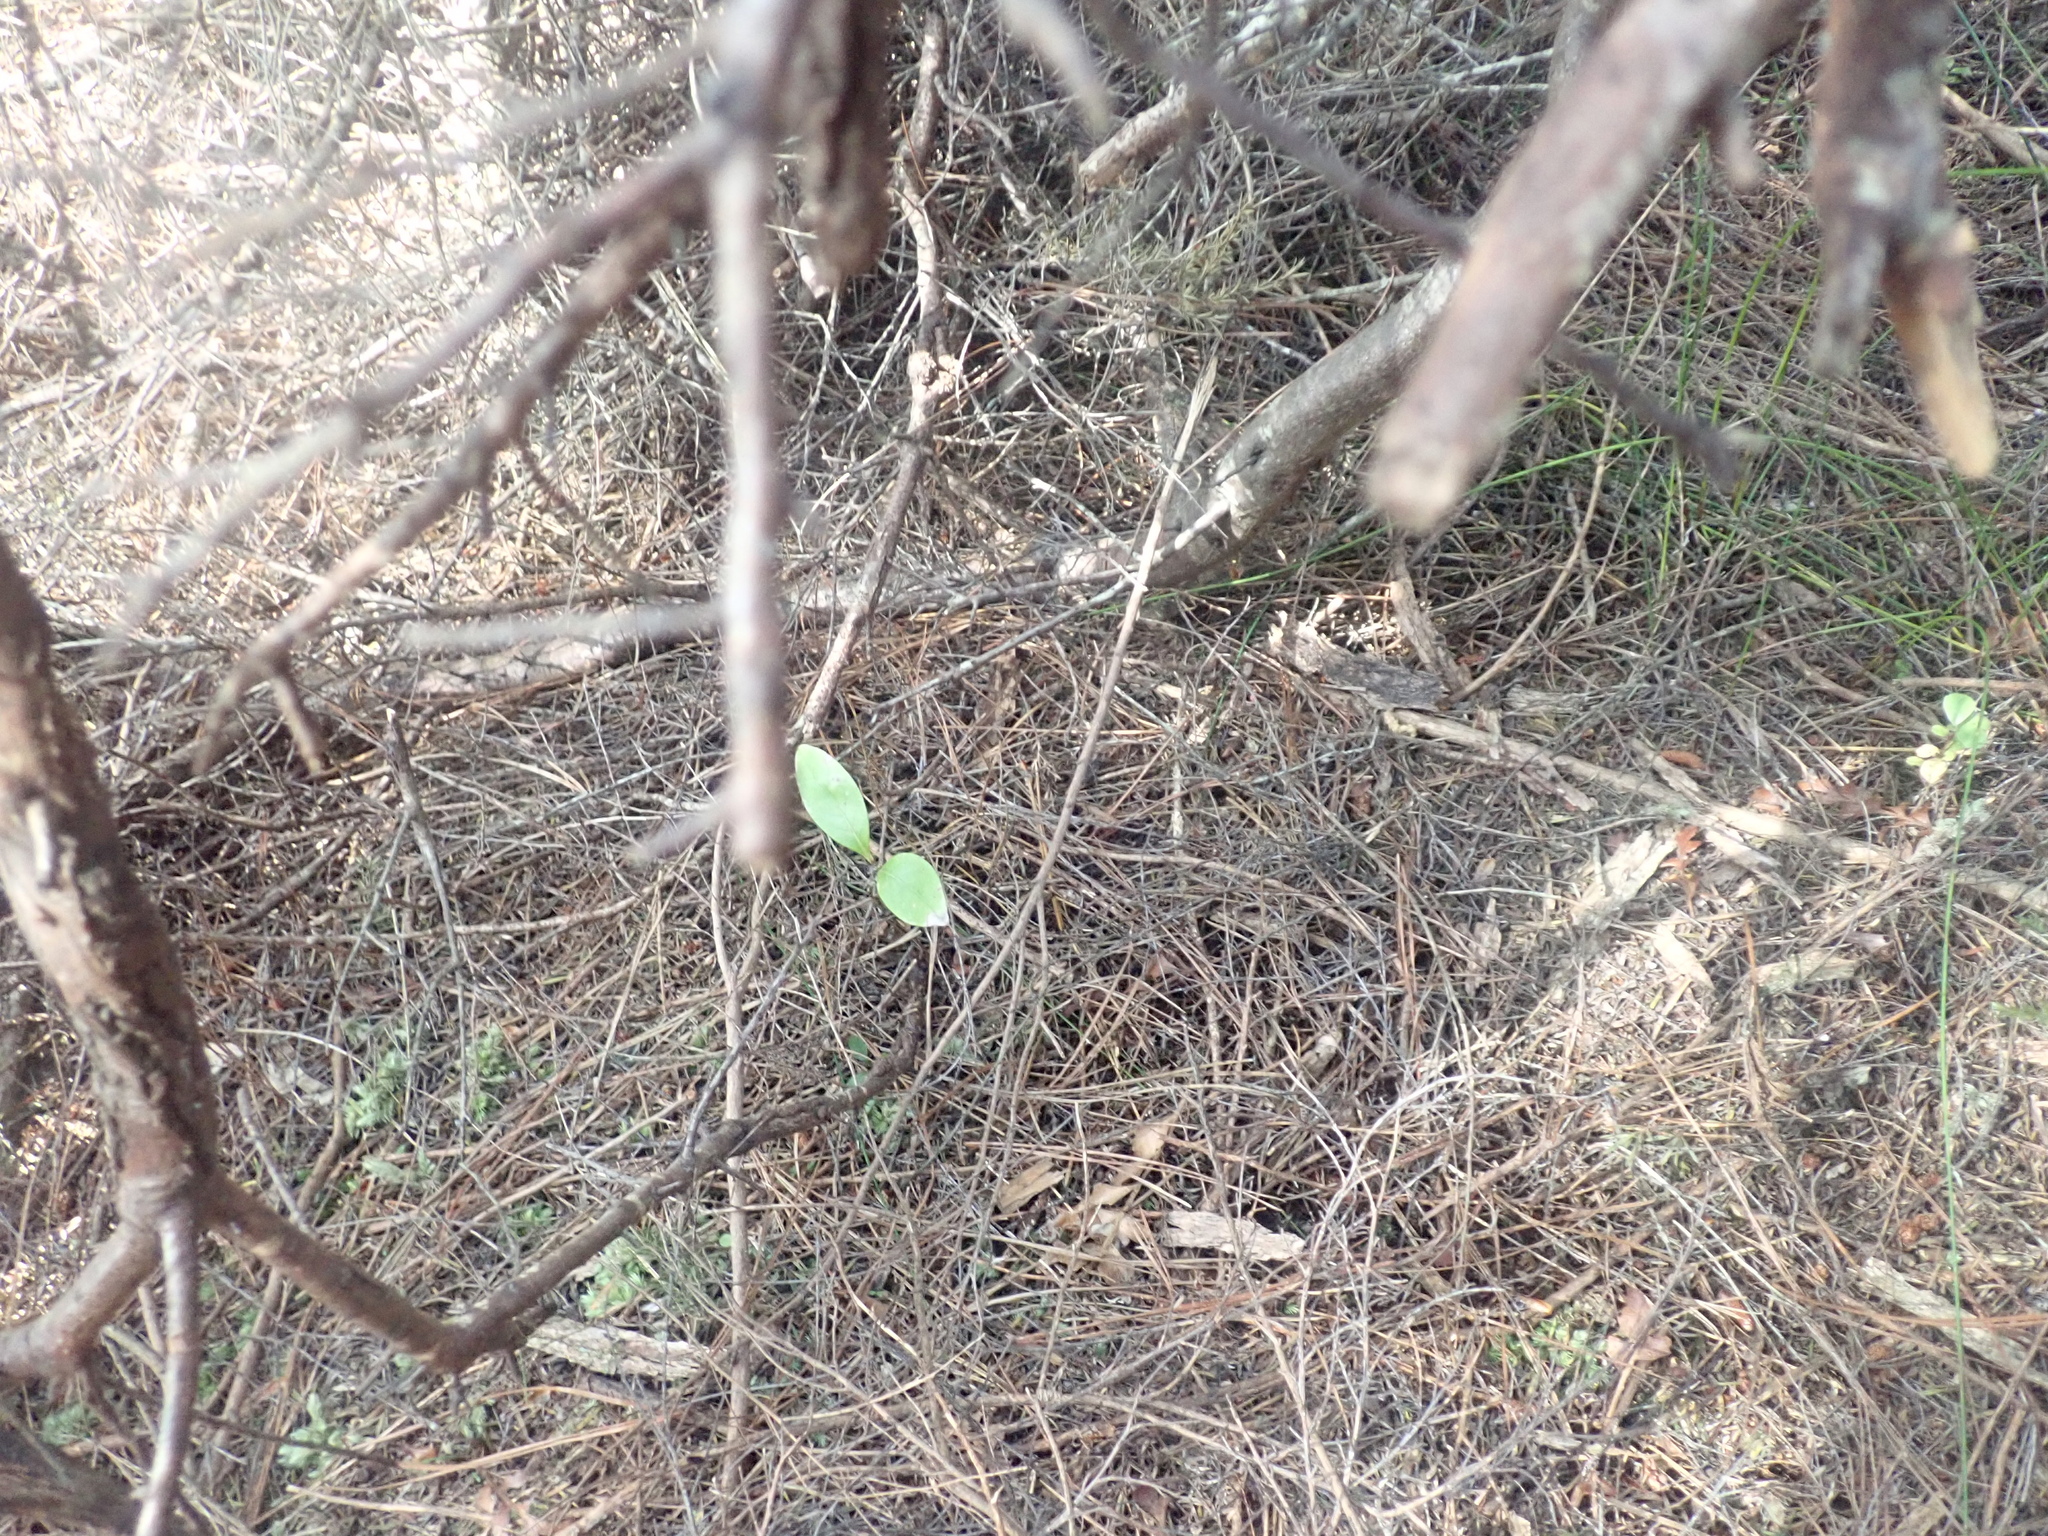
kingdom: Plantae
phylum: Tracheophyta
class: Magnoliopsida
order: Myrtales
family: Myrtaceae
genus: Kunzea
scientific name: Kunzea robusta
